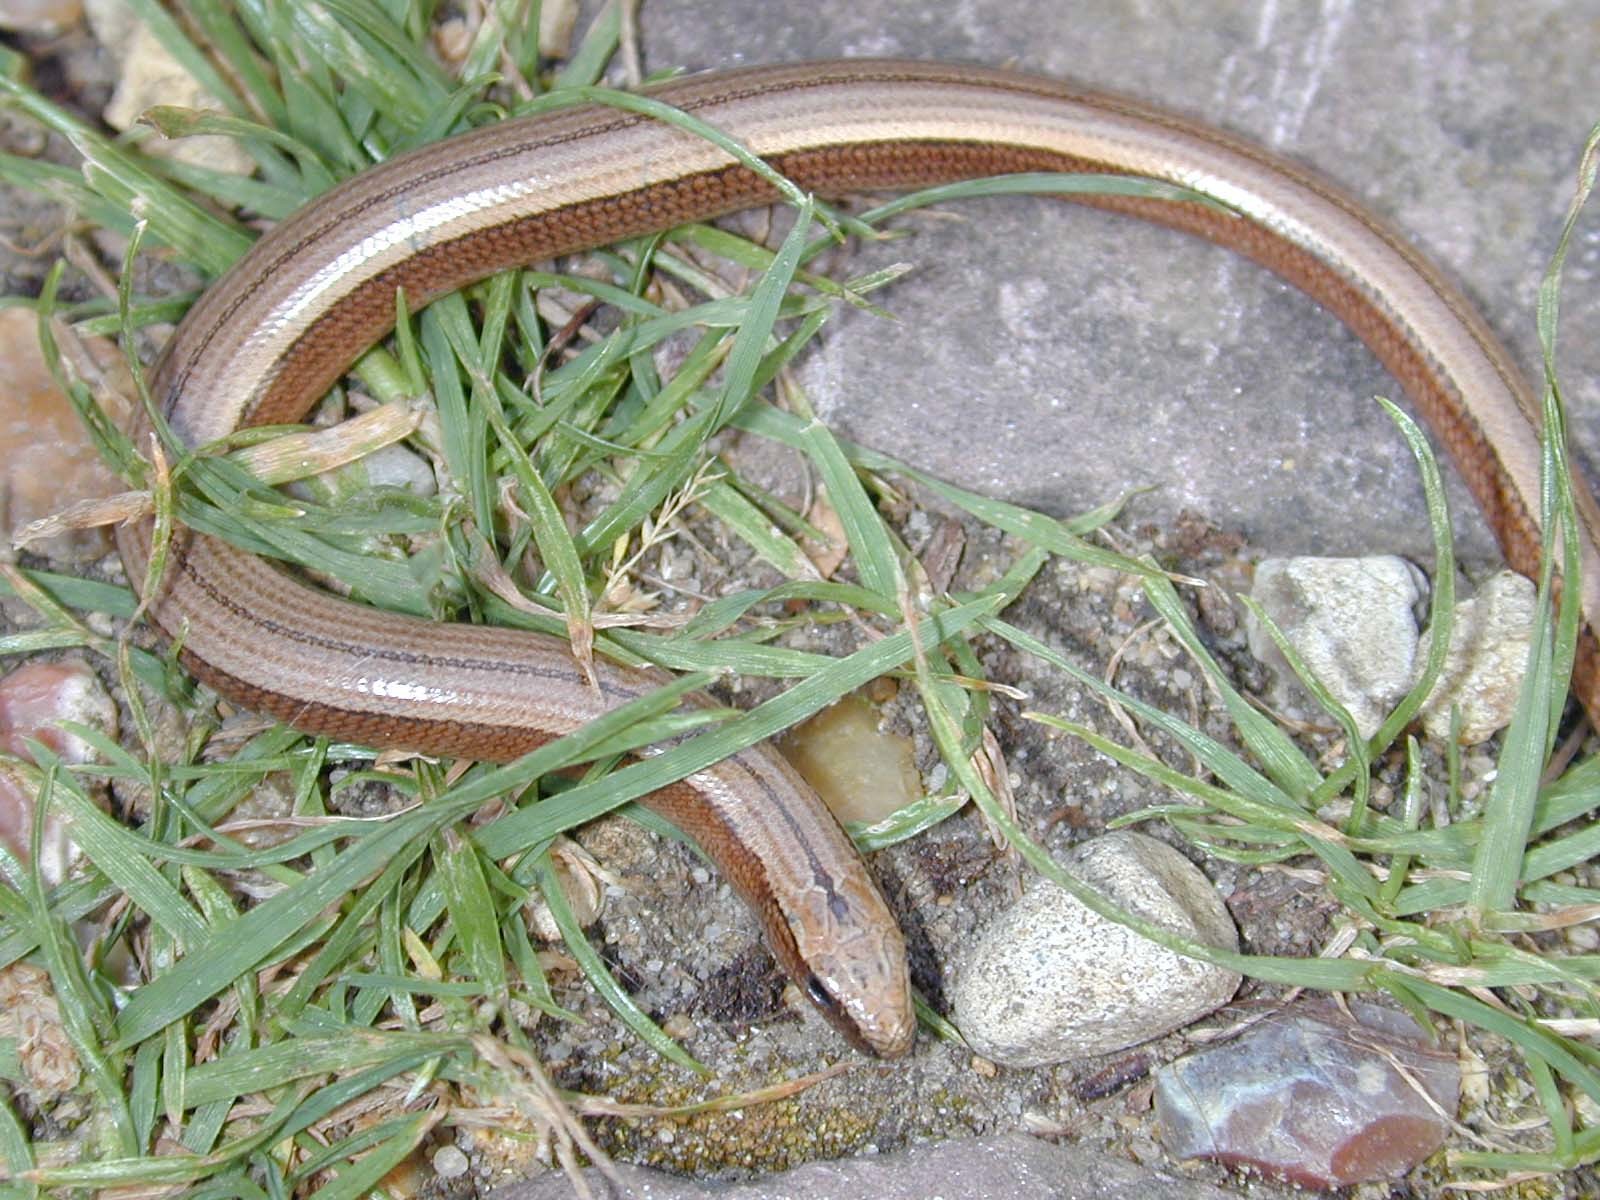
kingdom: Animalia
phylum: Chordata
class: Squamata
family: Anguidae
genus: Anguis
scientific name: Anguis fragilis
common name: Slow worm
